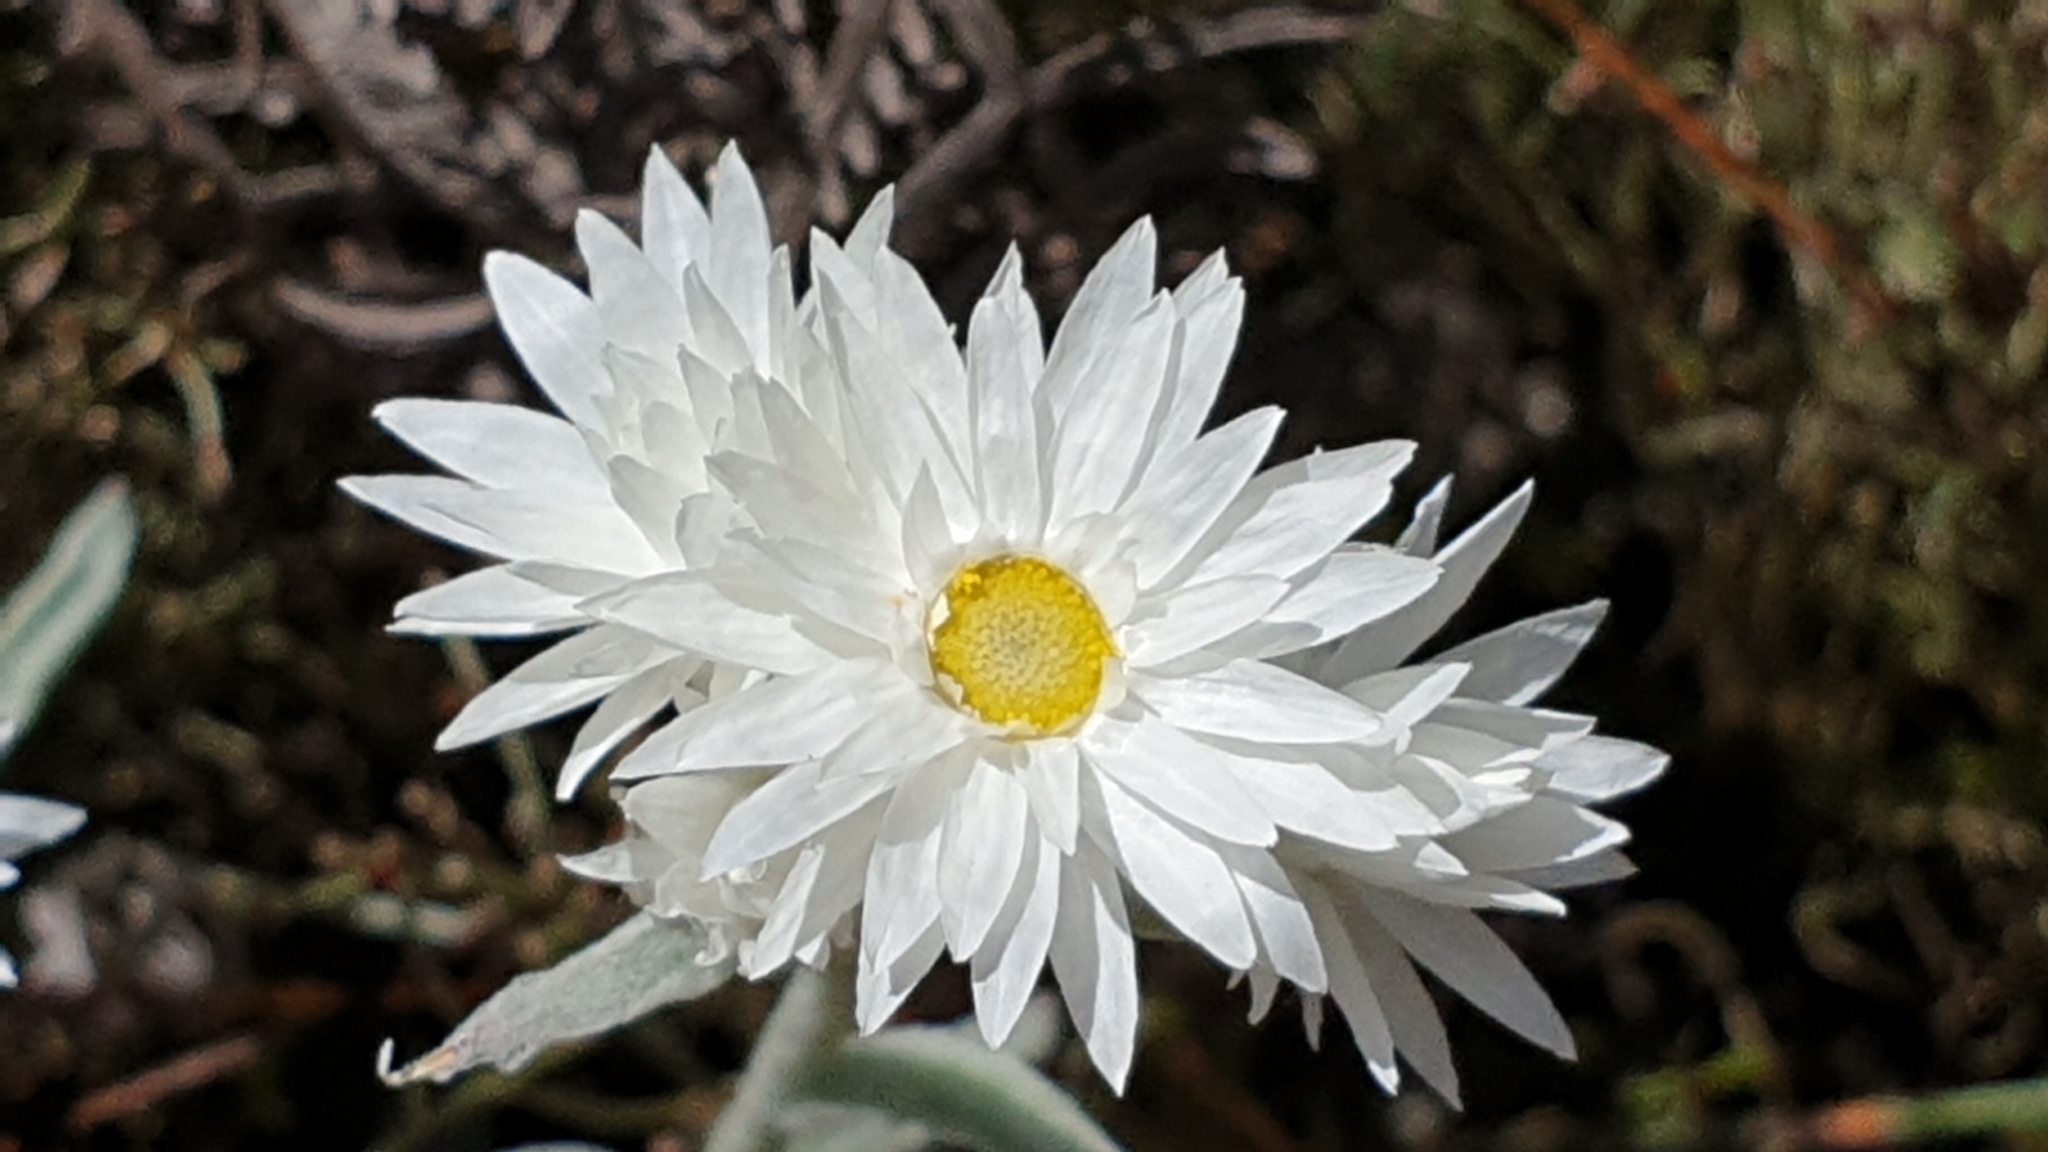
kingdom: Plantae
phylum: Tracheophyta
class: Magnoliopsida
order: Asterales
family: Asteraceae
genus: Argentipallium
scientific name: Argentipallium blandowskianum
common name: Woolly everlasting
